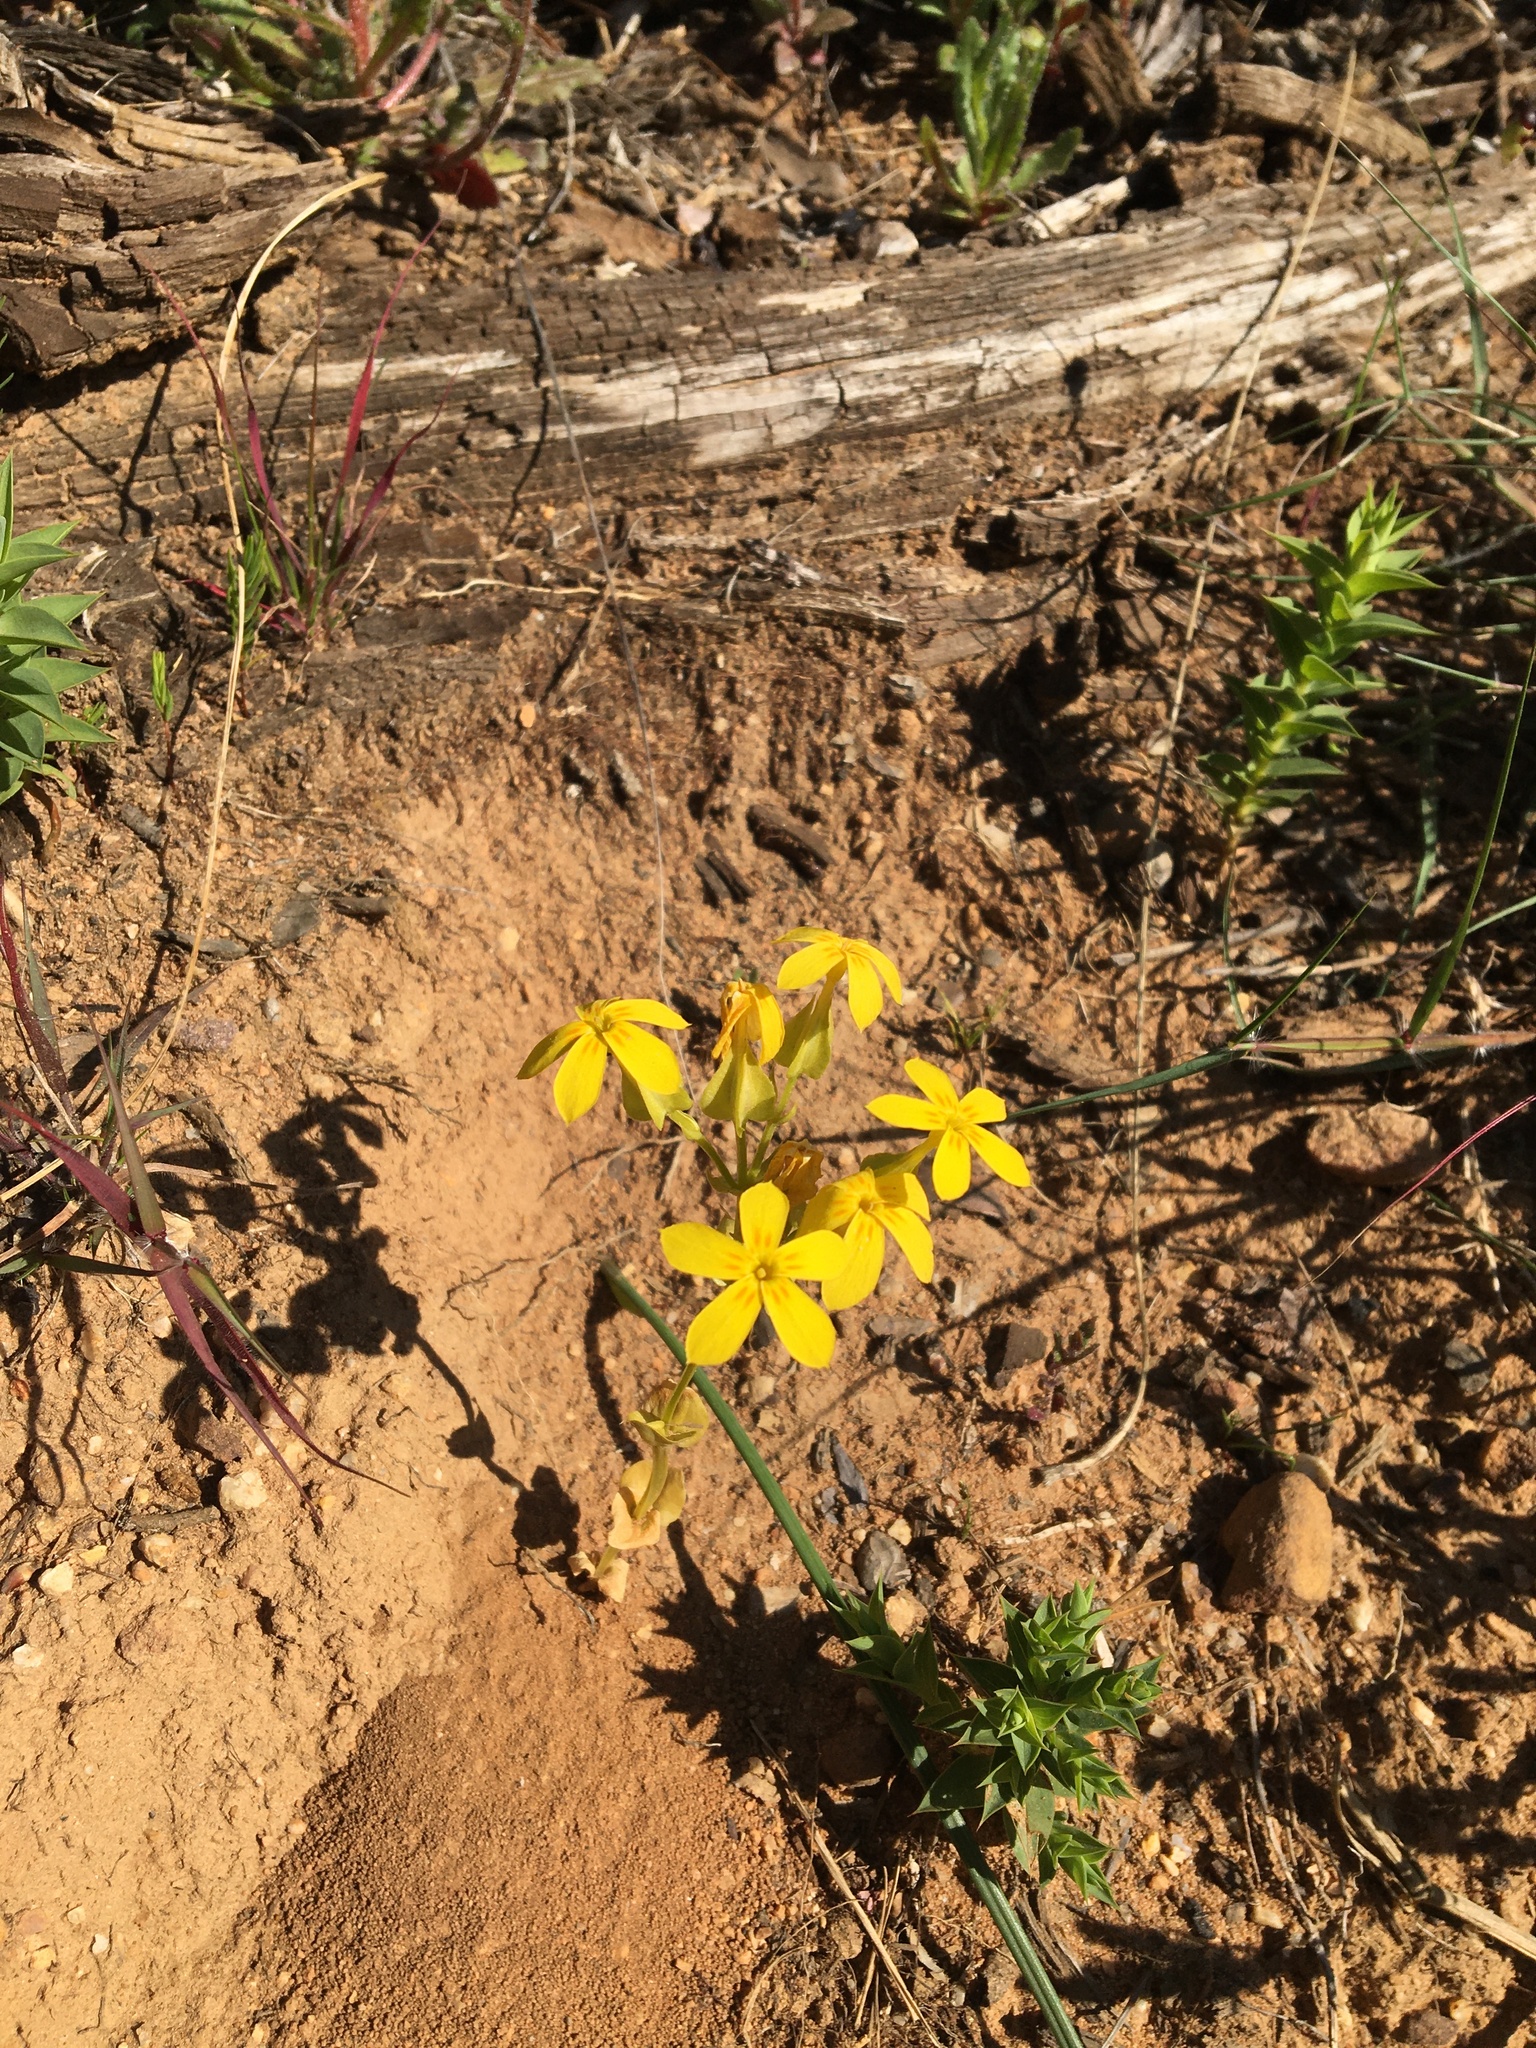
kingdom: Plantae
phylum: Tracheophyta
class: Magnoliopsida
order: Gentianales
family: Gentianaceae
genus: Sebaea
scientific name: Sebaea exacoides
